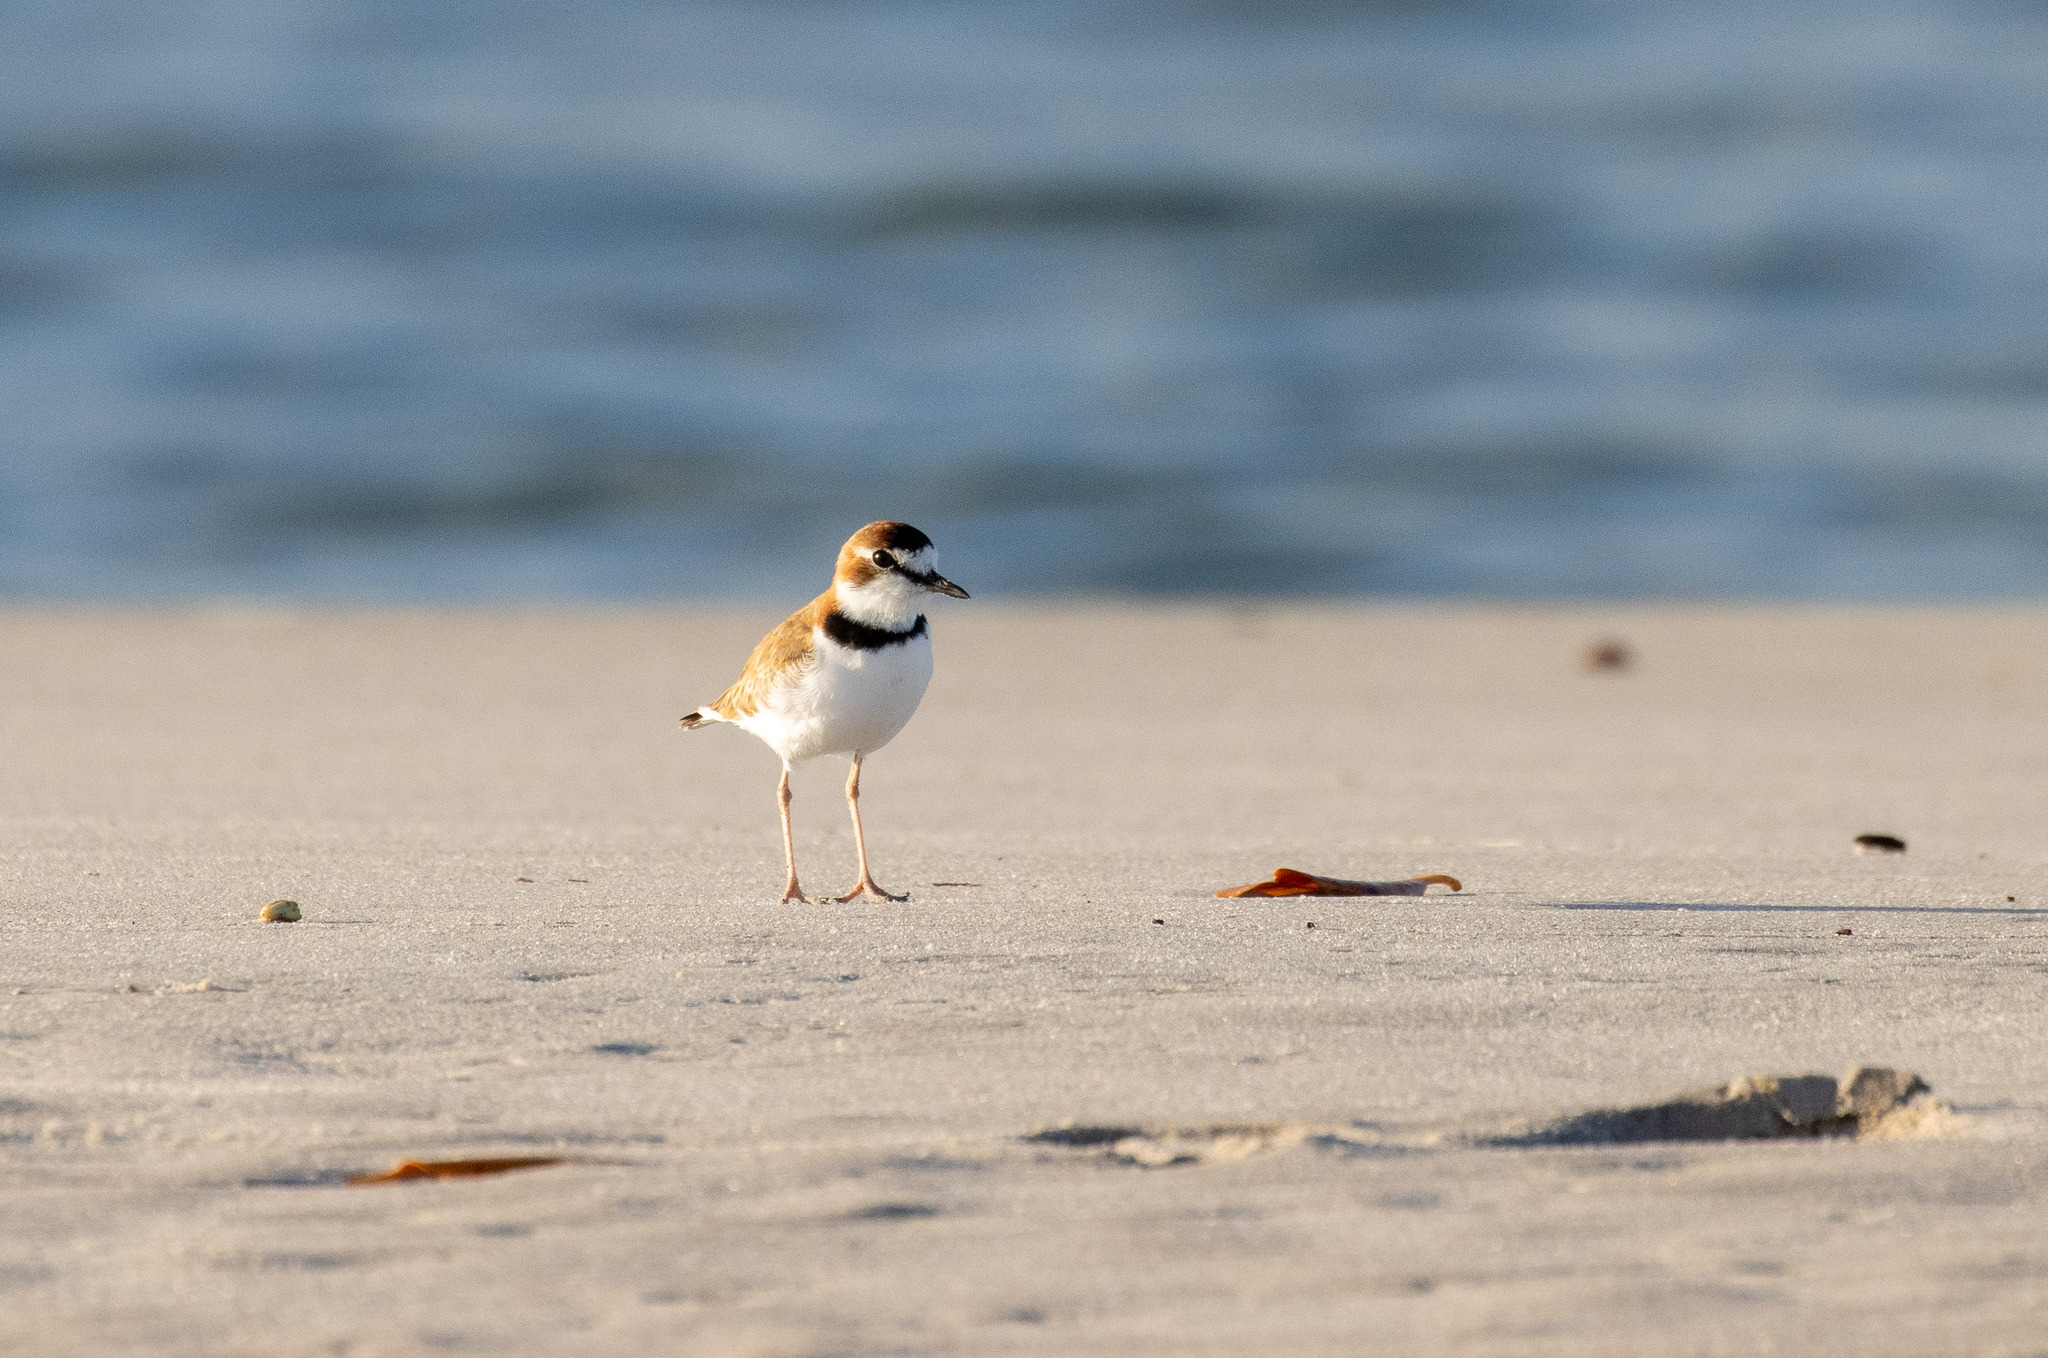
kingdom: Animalia
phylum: Chordata
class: Aves
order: Charadriiformes
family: Charadriidae
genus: Anarhynchus
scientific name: Anarhynchus
